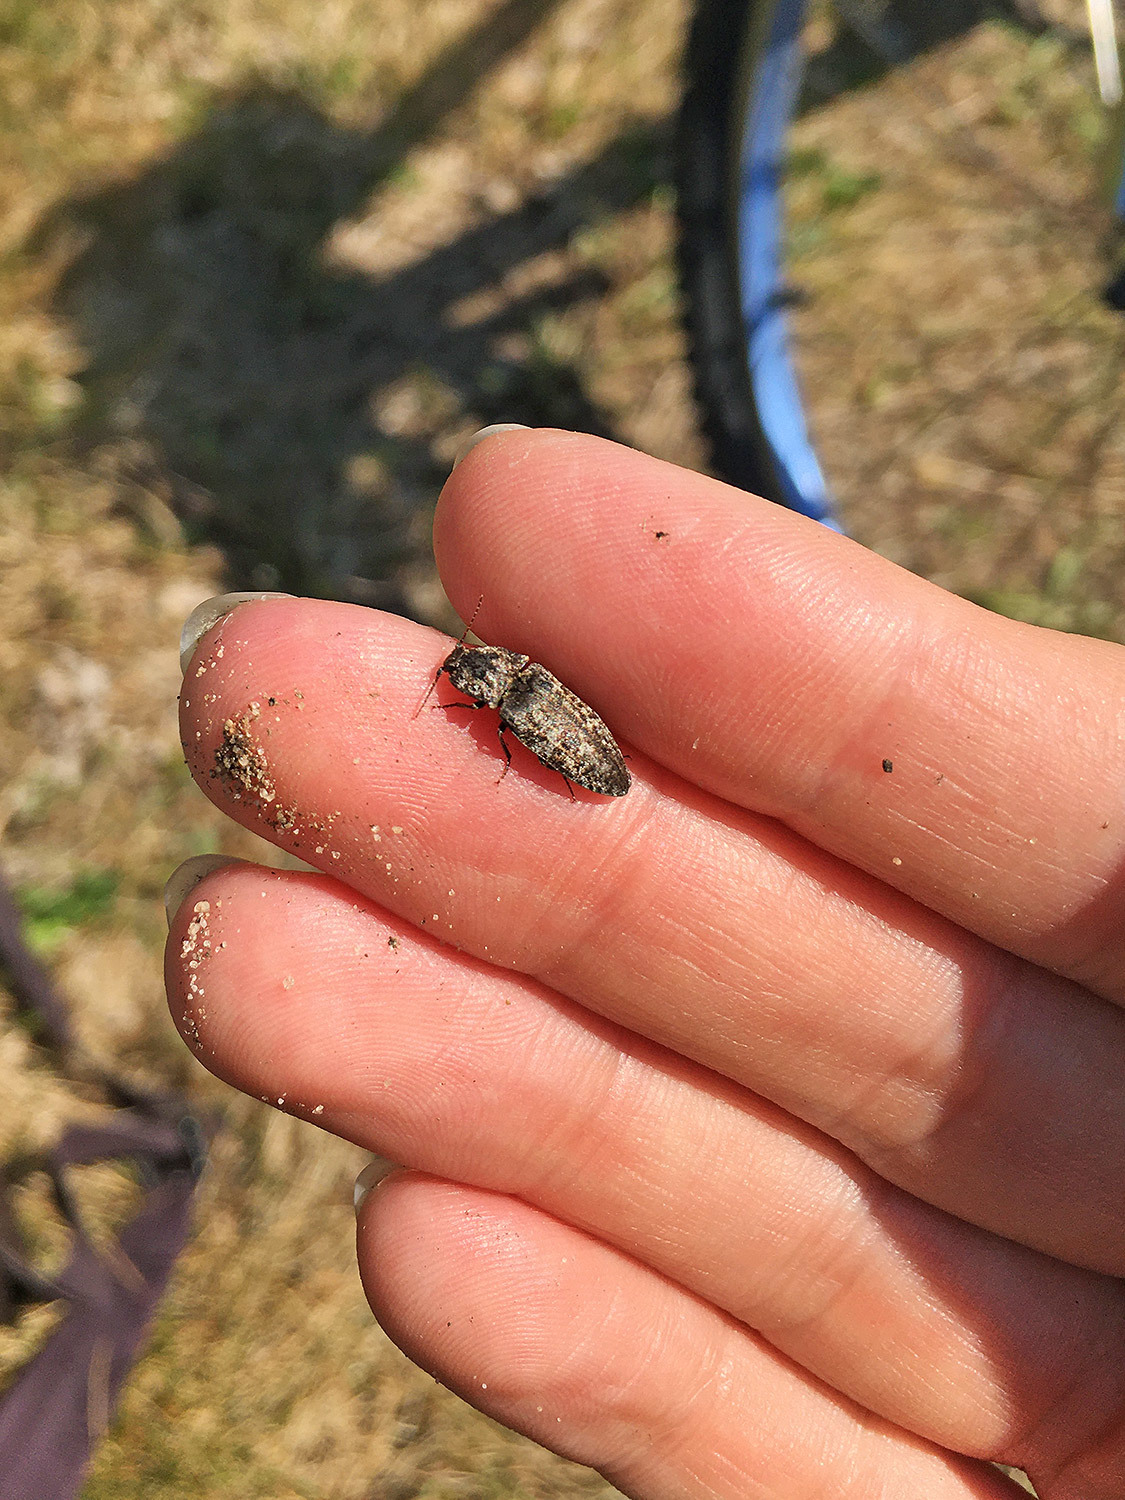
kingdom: Animalia
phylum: Arthropoda
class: Insecta
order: Coleoptera
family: Elateridae
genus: Agrypnus
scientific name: Agrypnus murinus
